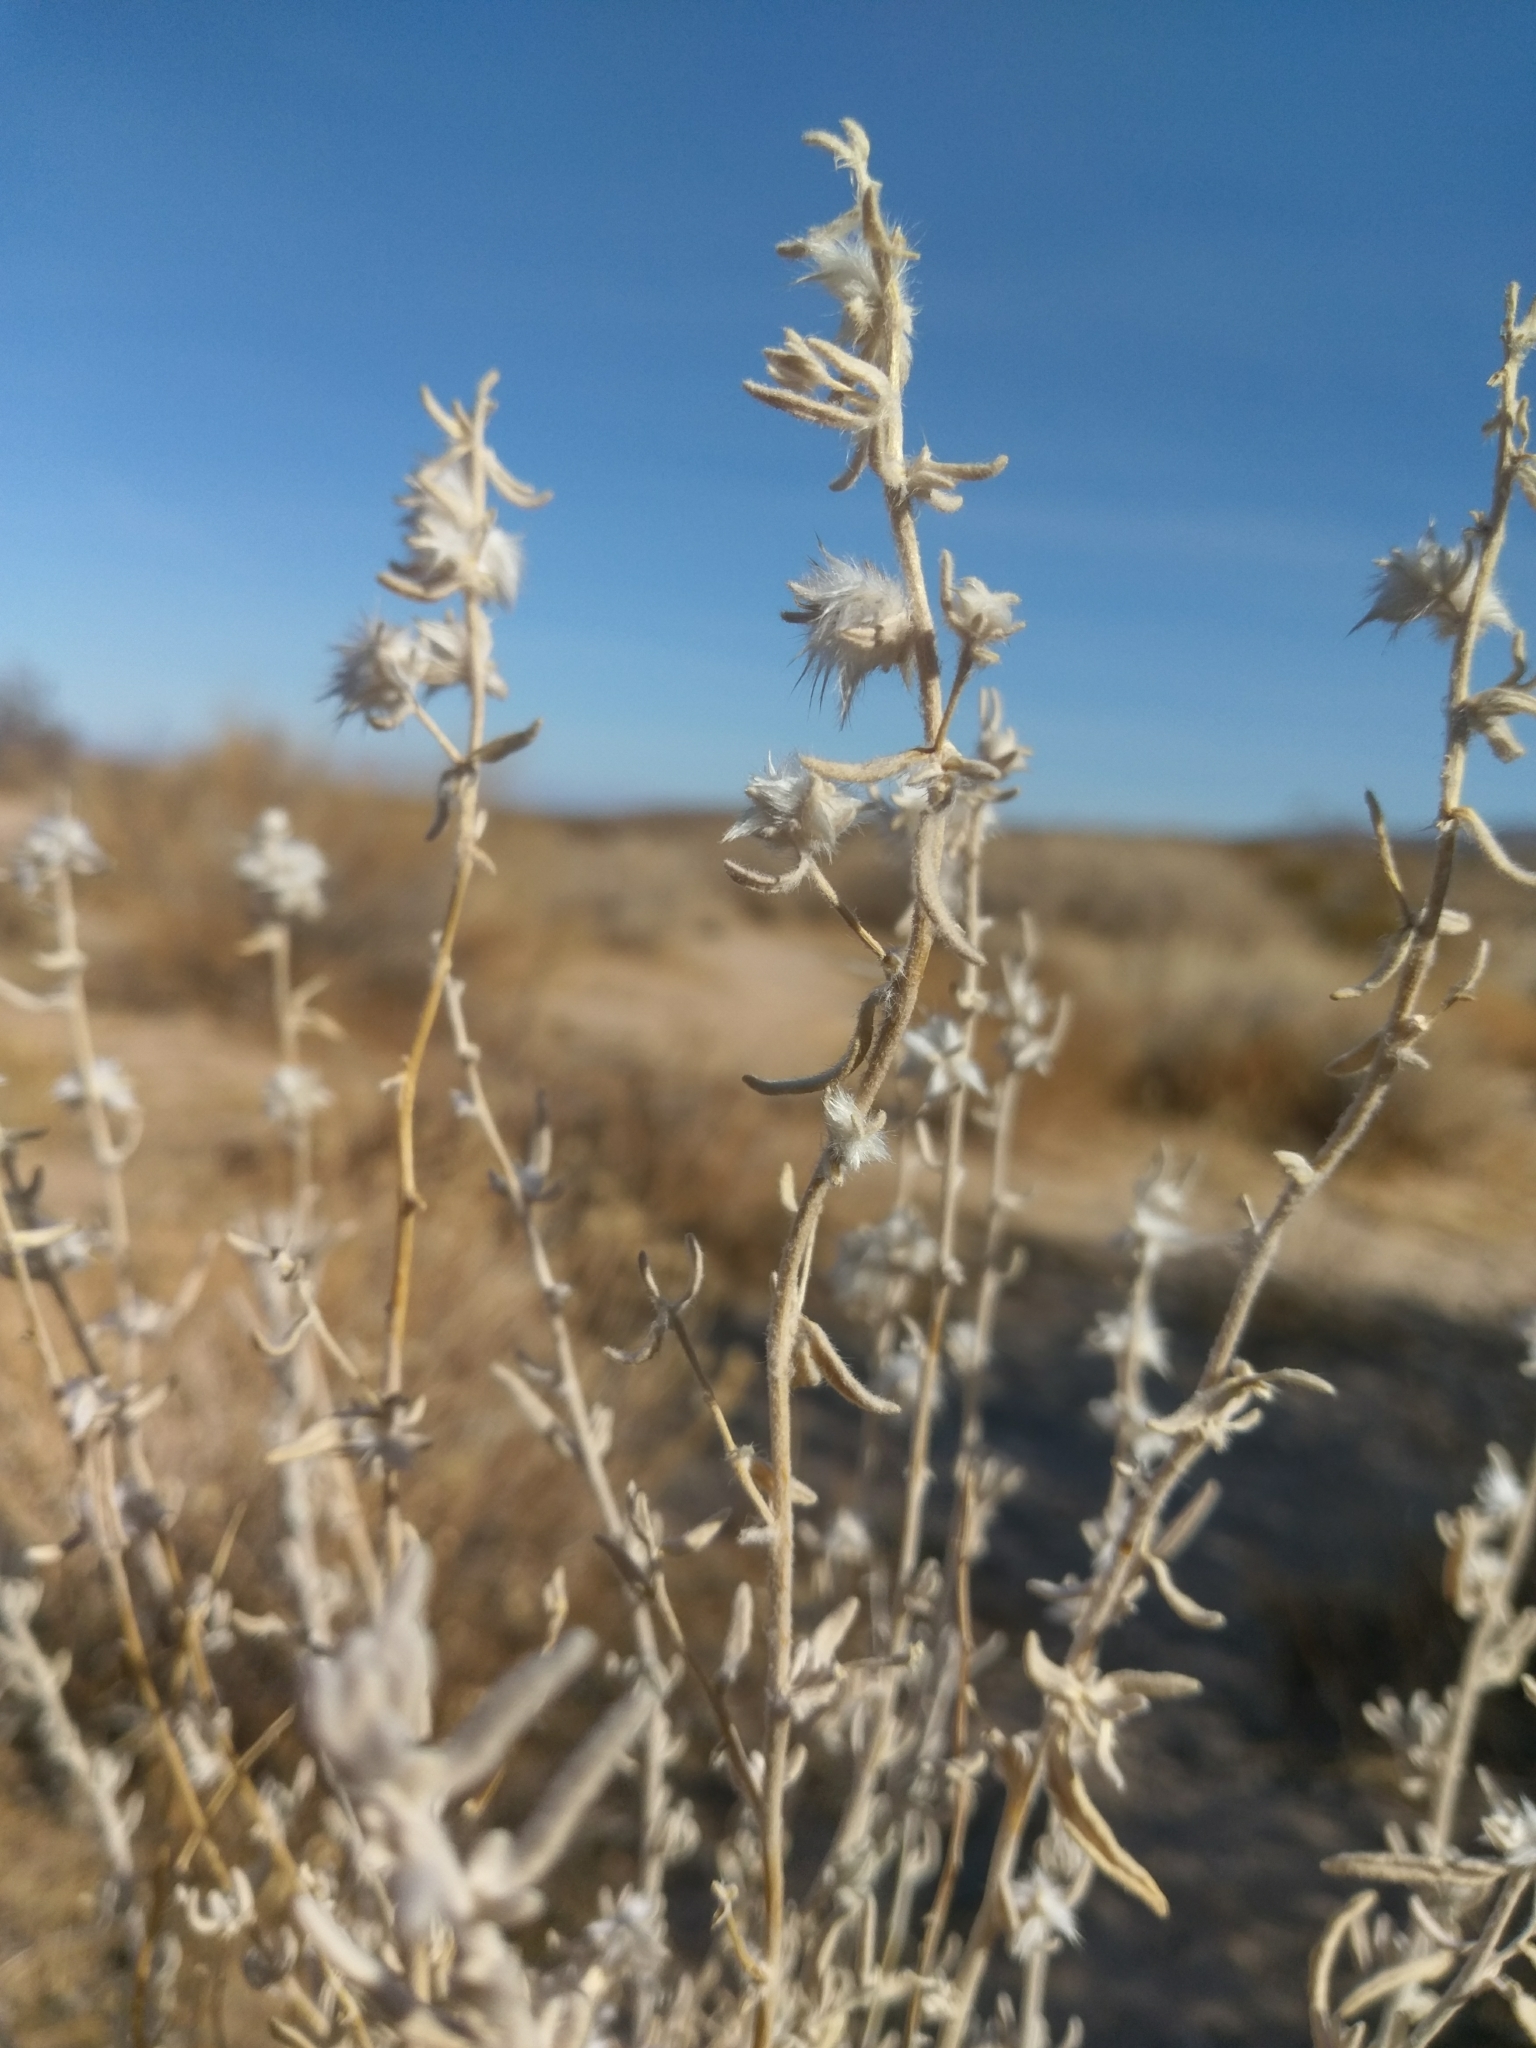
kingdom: Plantae
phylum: Tracheophyta
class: Magnoliopsida
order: Caryophyllales
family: Amaranthaceae
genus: Krascheninnikovia
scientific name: Krascheninnikovia lanata
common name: Winterfat
